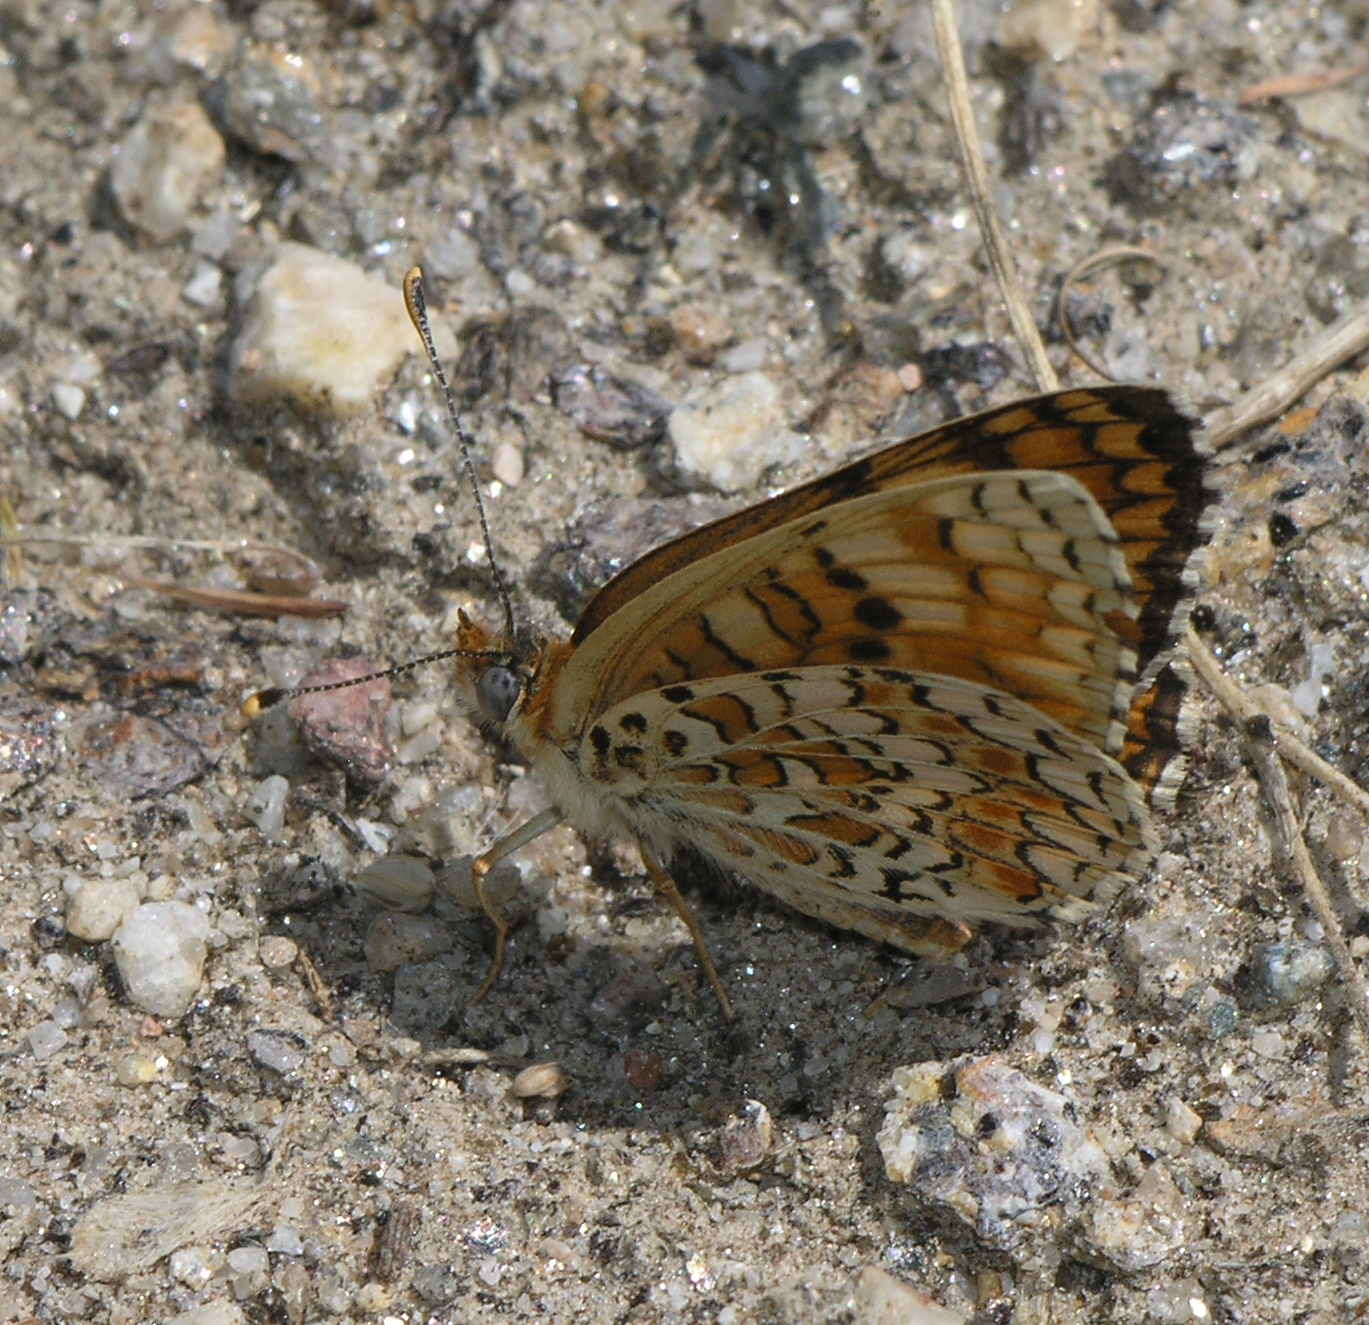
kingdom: Animalia
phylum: Arthropoda
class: Insecta
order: Lepidoptera
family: Nymphalidae
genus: Melitaea
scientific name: Melitaea phoebe
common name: Knapweed fritillary
